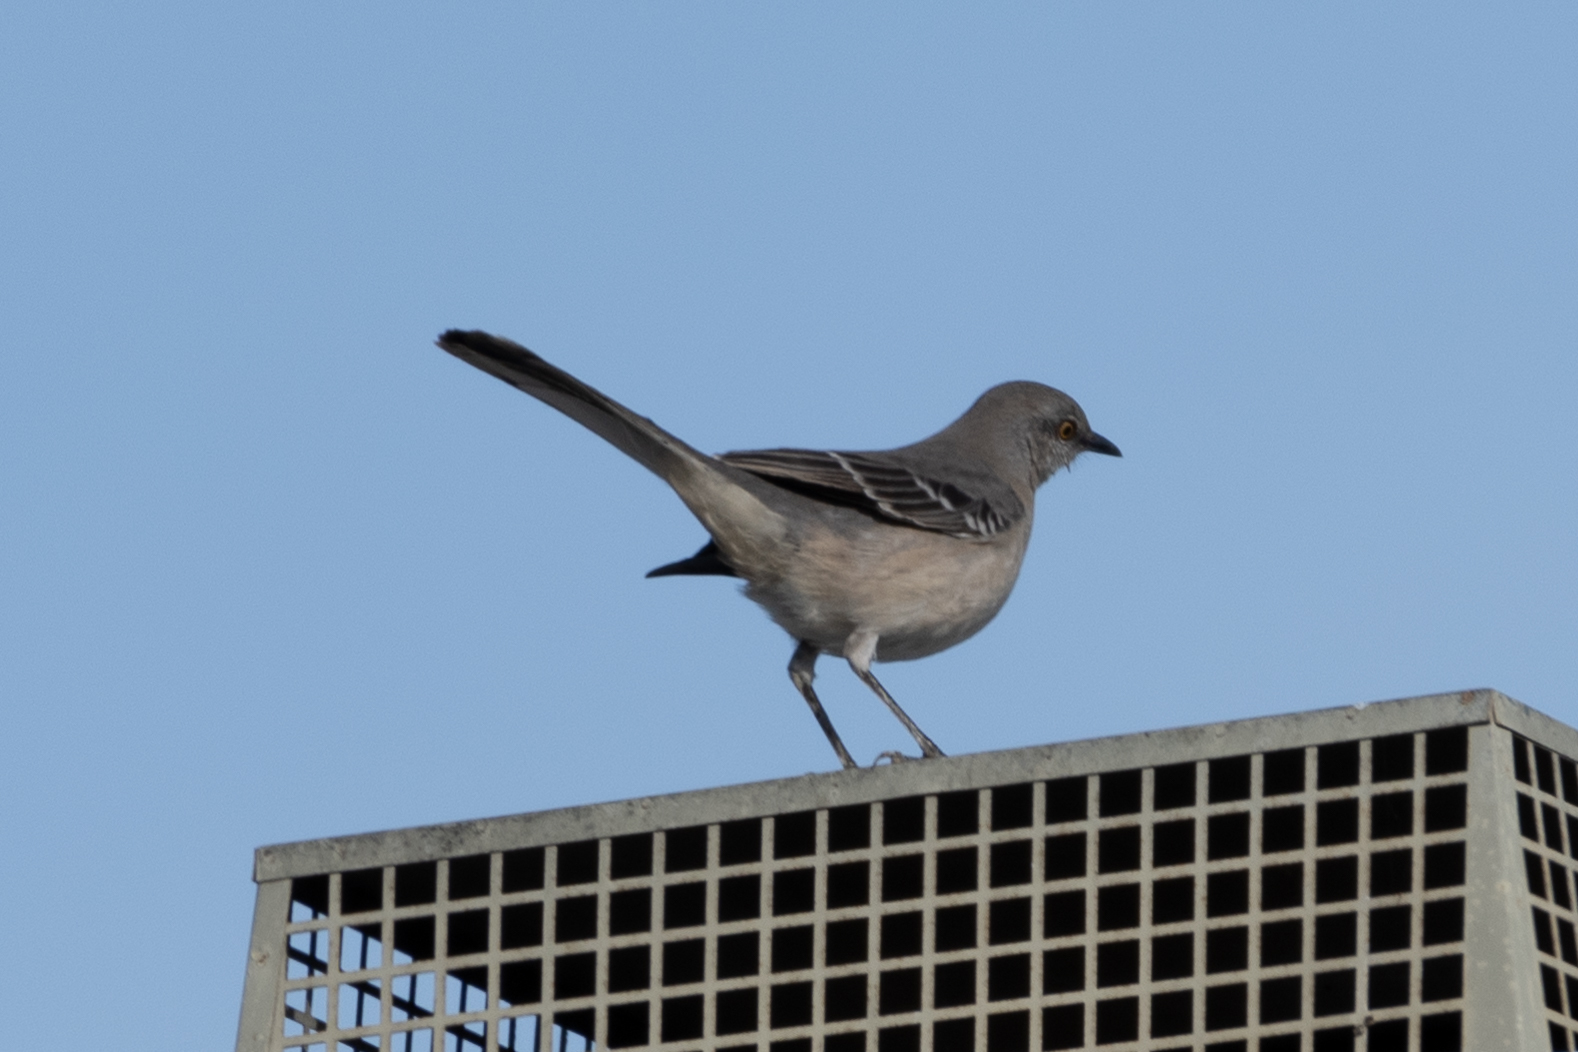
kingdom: Animalia
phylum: Chordata
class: Aves
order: Passeriformes
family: Mimidae
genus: Mimus
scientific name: Mimus polyglottos
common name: Northern mockingbird
